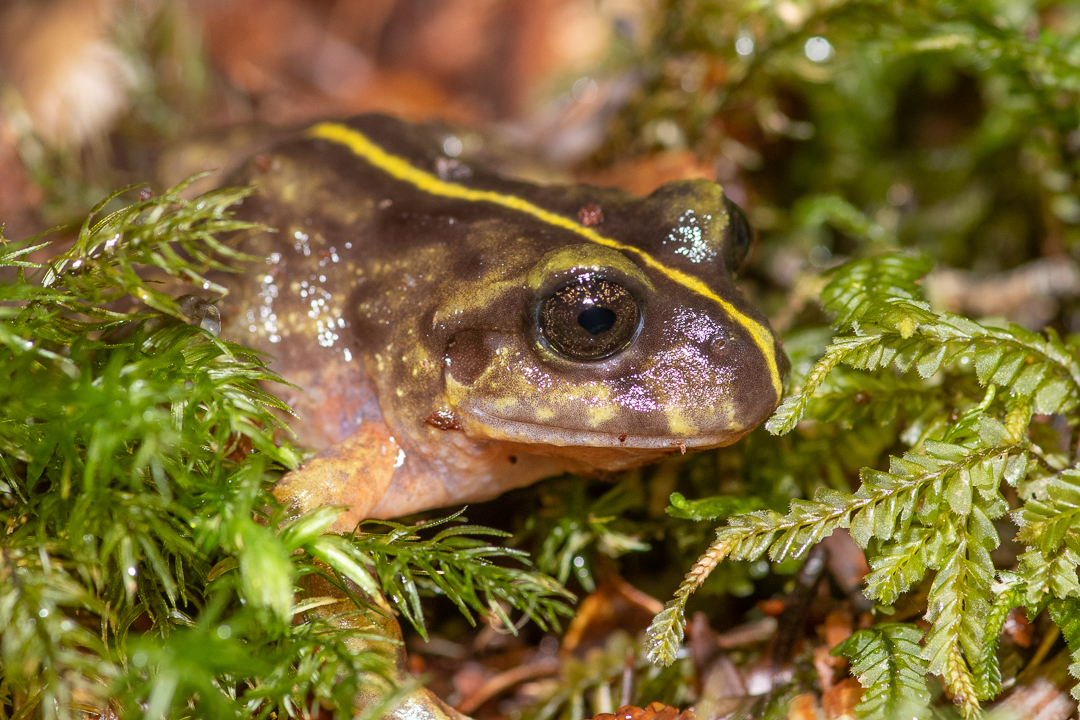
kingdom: Animalia
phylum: Chordata
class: Amphibia
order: Anura
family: Alsodidae
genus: Eupsophus
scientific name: Eupsophus emiliopugini
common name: Emilio's ground frog
